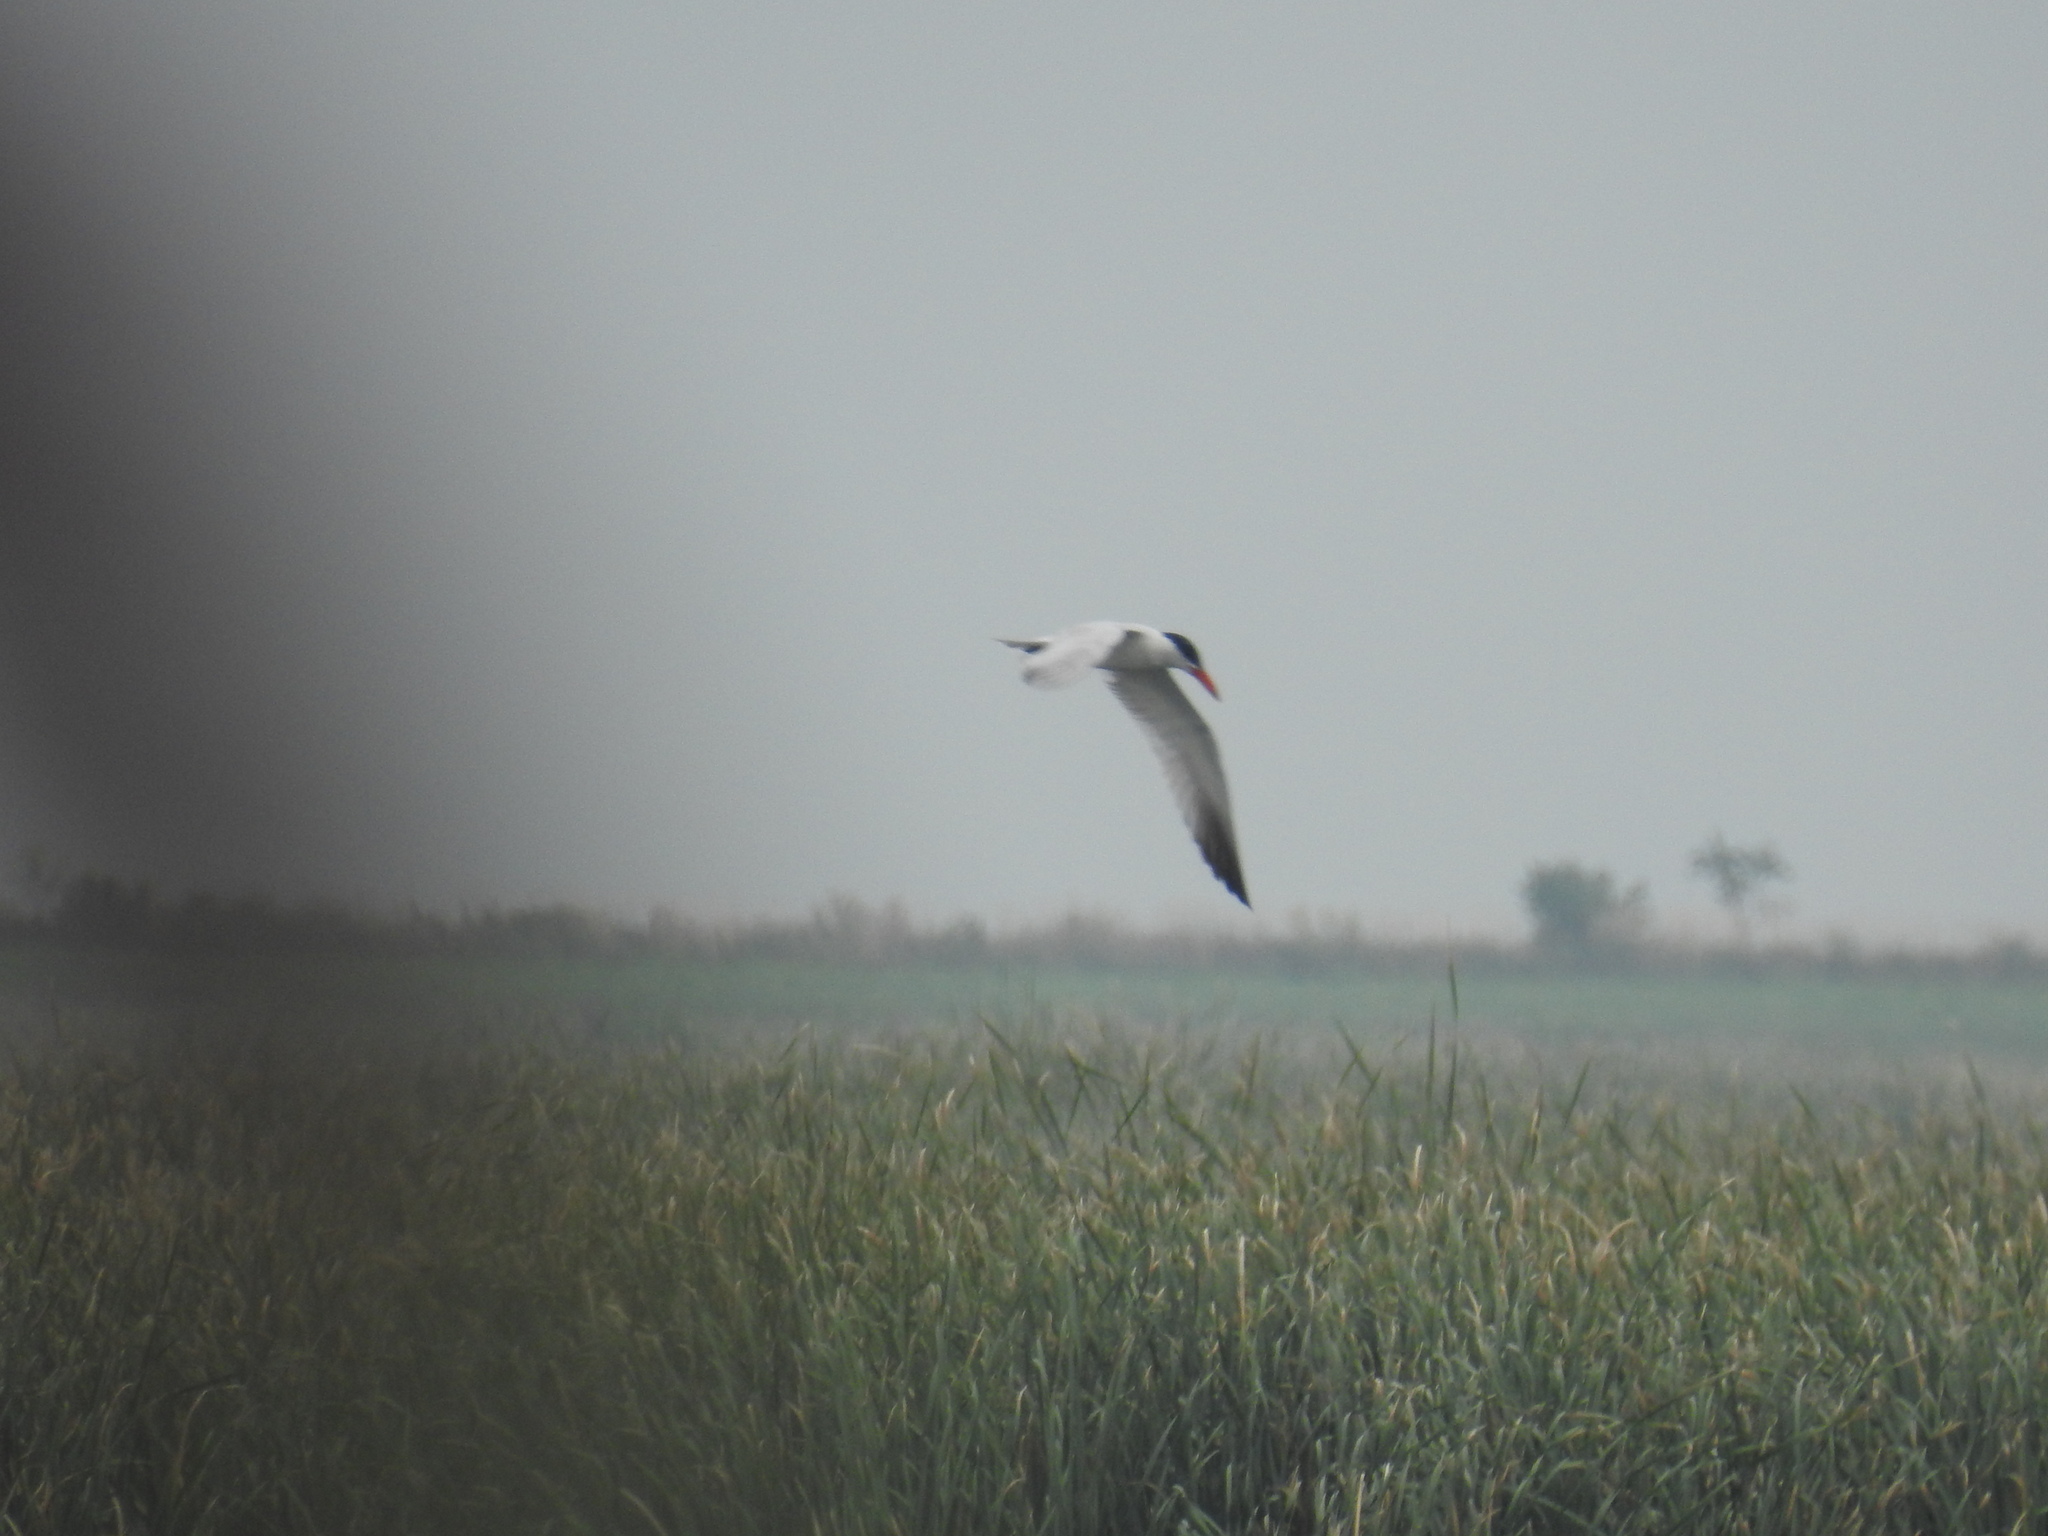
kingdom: Animalia
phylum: Chordata
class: Aves
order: Charadriiformes
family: Laridae
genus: Hydroprogne
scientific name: Hydroprogne caspia
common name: Caspian tern
